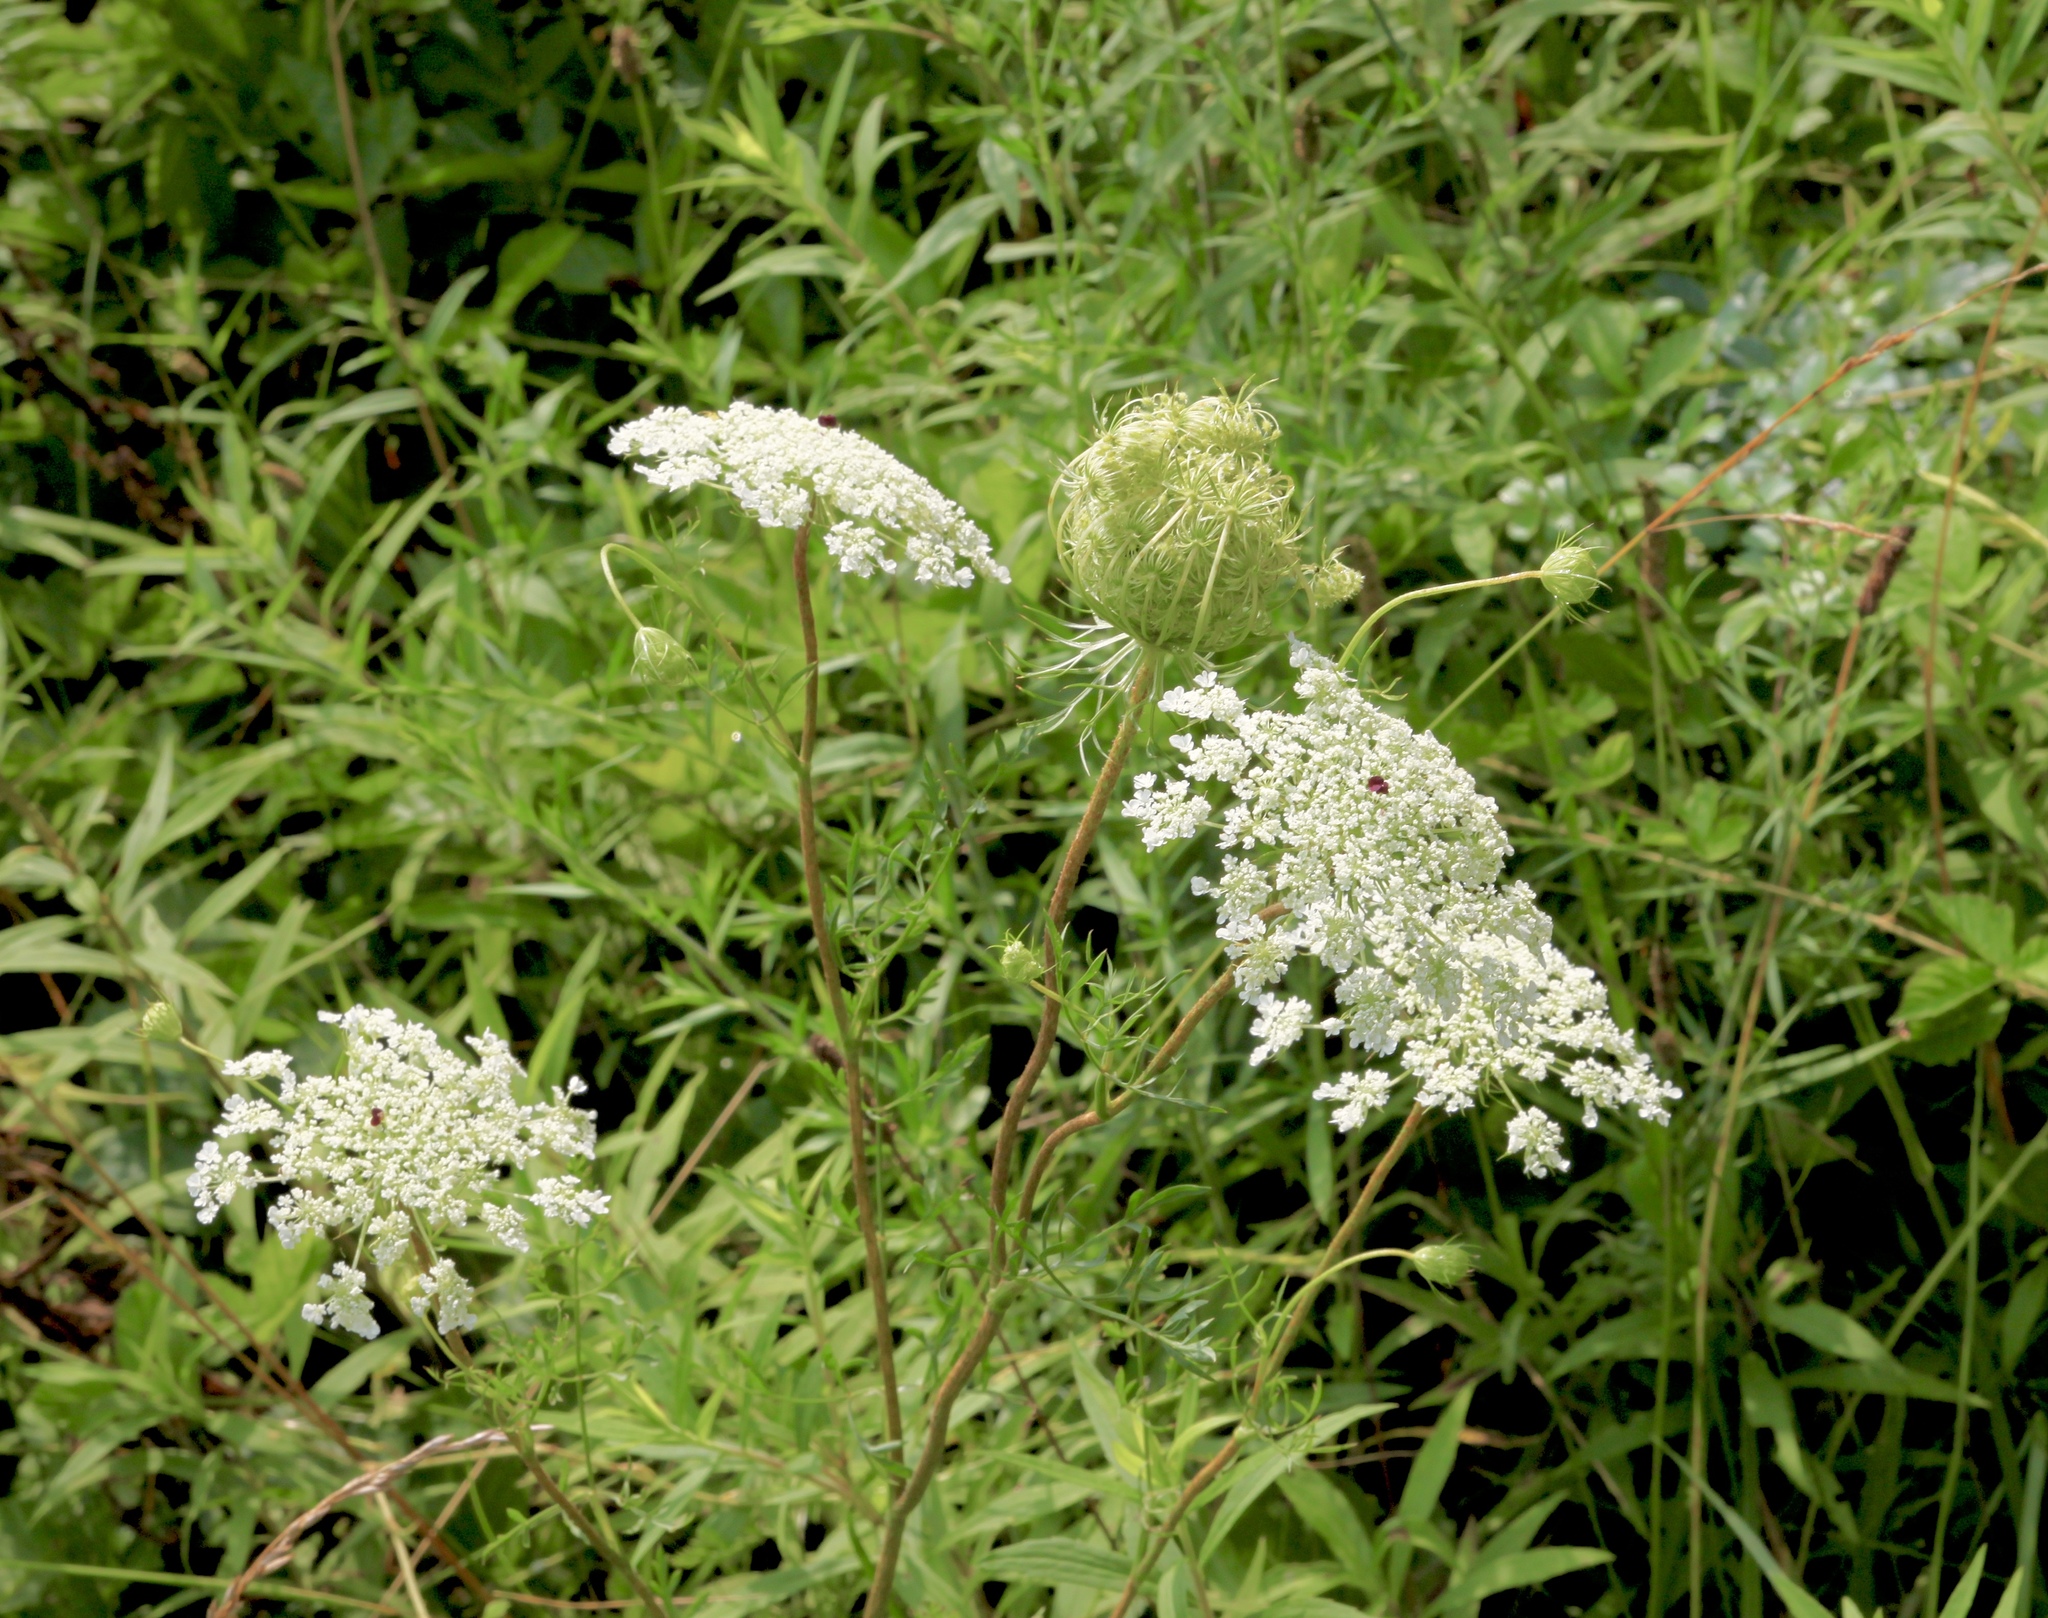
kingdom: Plantae
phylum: Tracheophyta
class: Magnoliopsida
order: Apiales
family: Apiaceae
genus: Daucus
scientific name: Daucus carota
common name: Wild carrot
